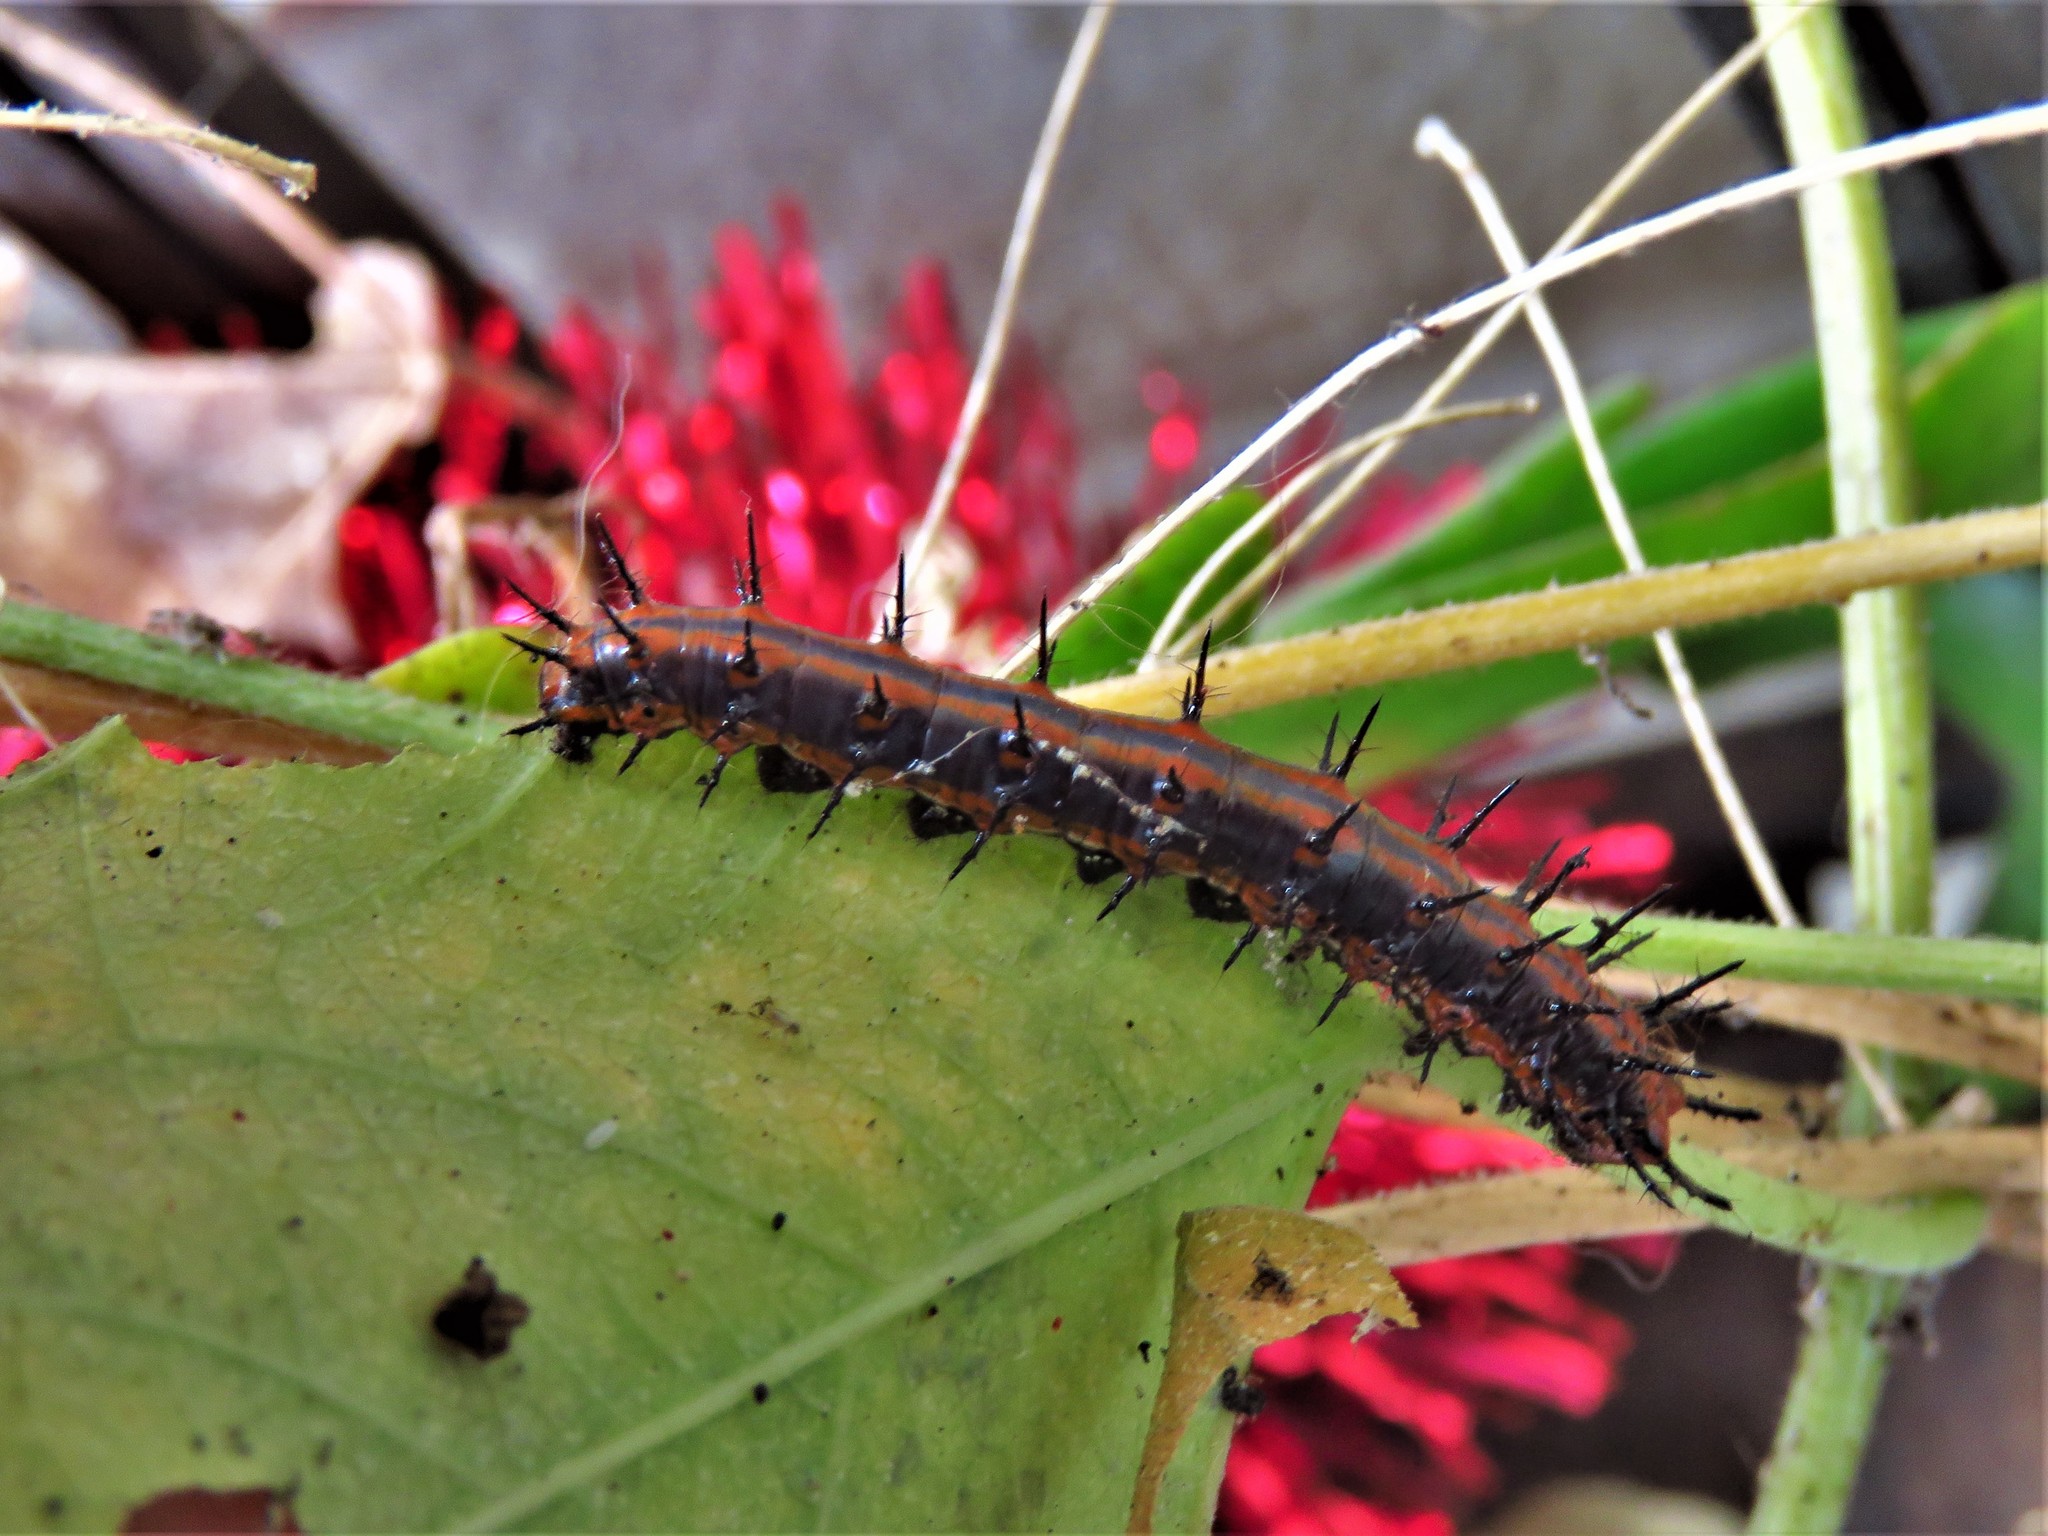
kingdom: Animalia
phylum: Arthropoda
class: Insecta
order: Lepidoptera
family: Nymphalidae
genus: Dione
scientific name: Dione vanillae
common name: Gulf fritillary
